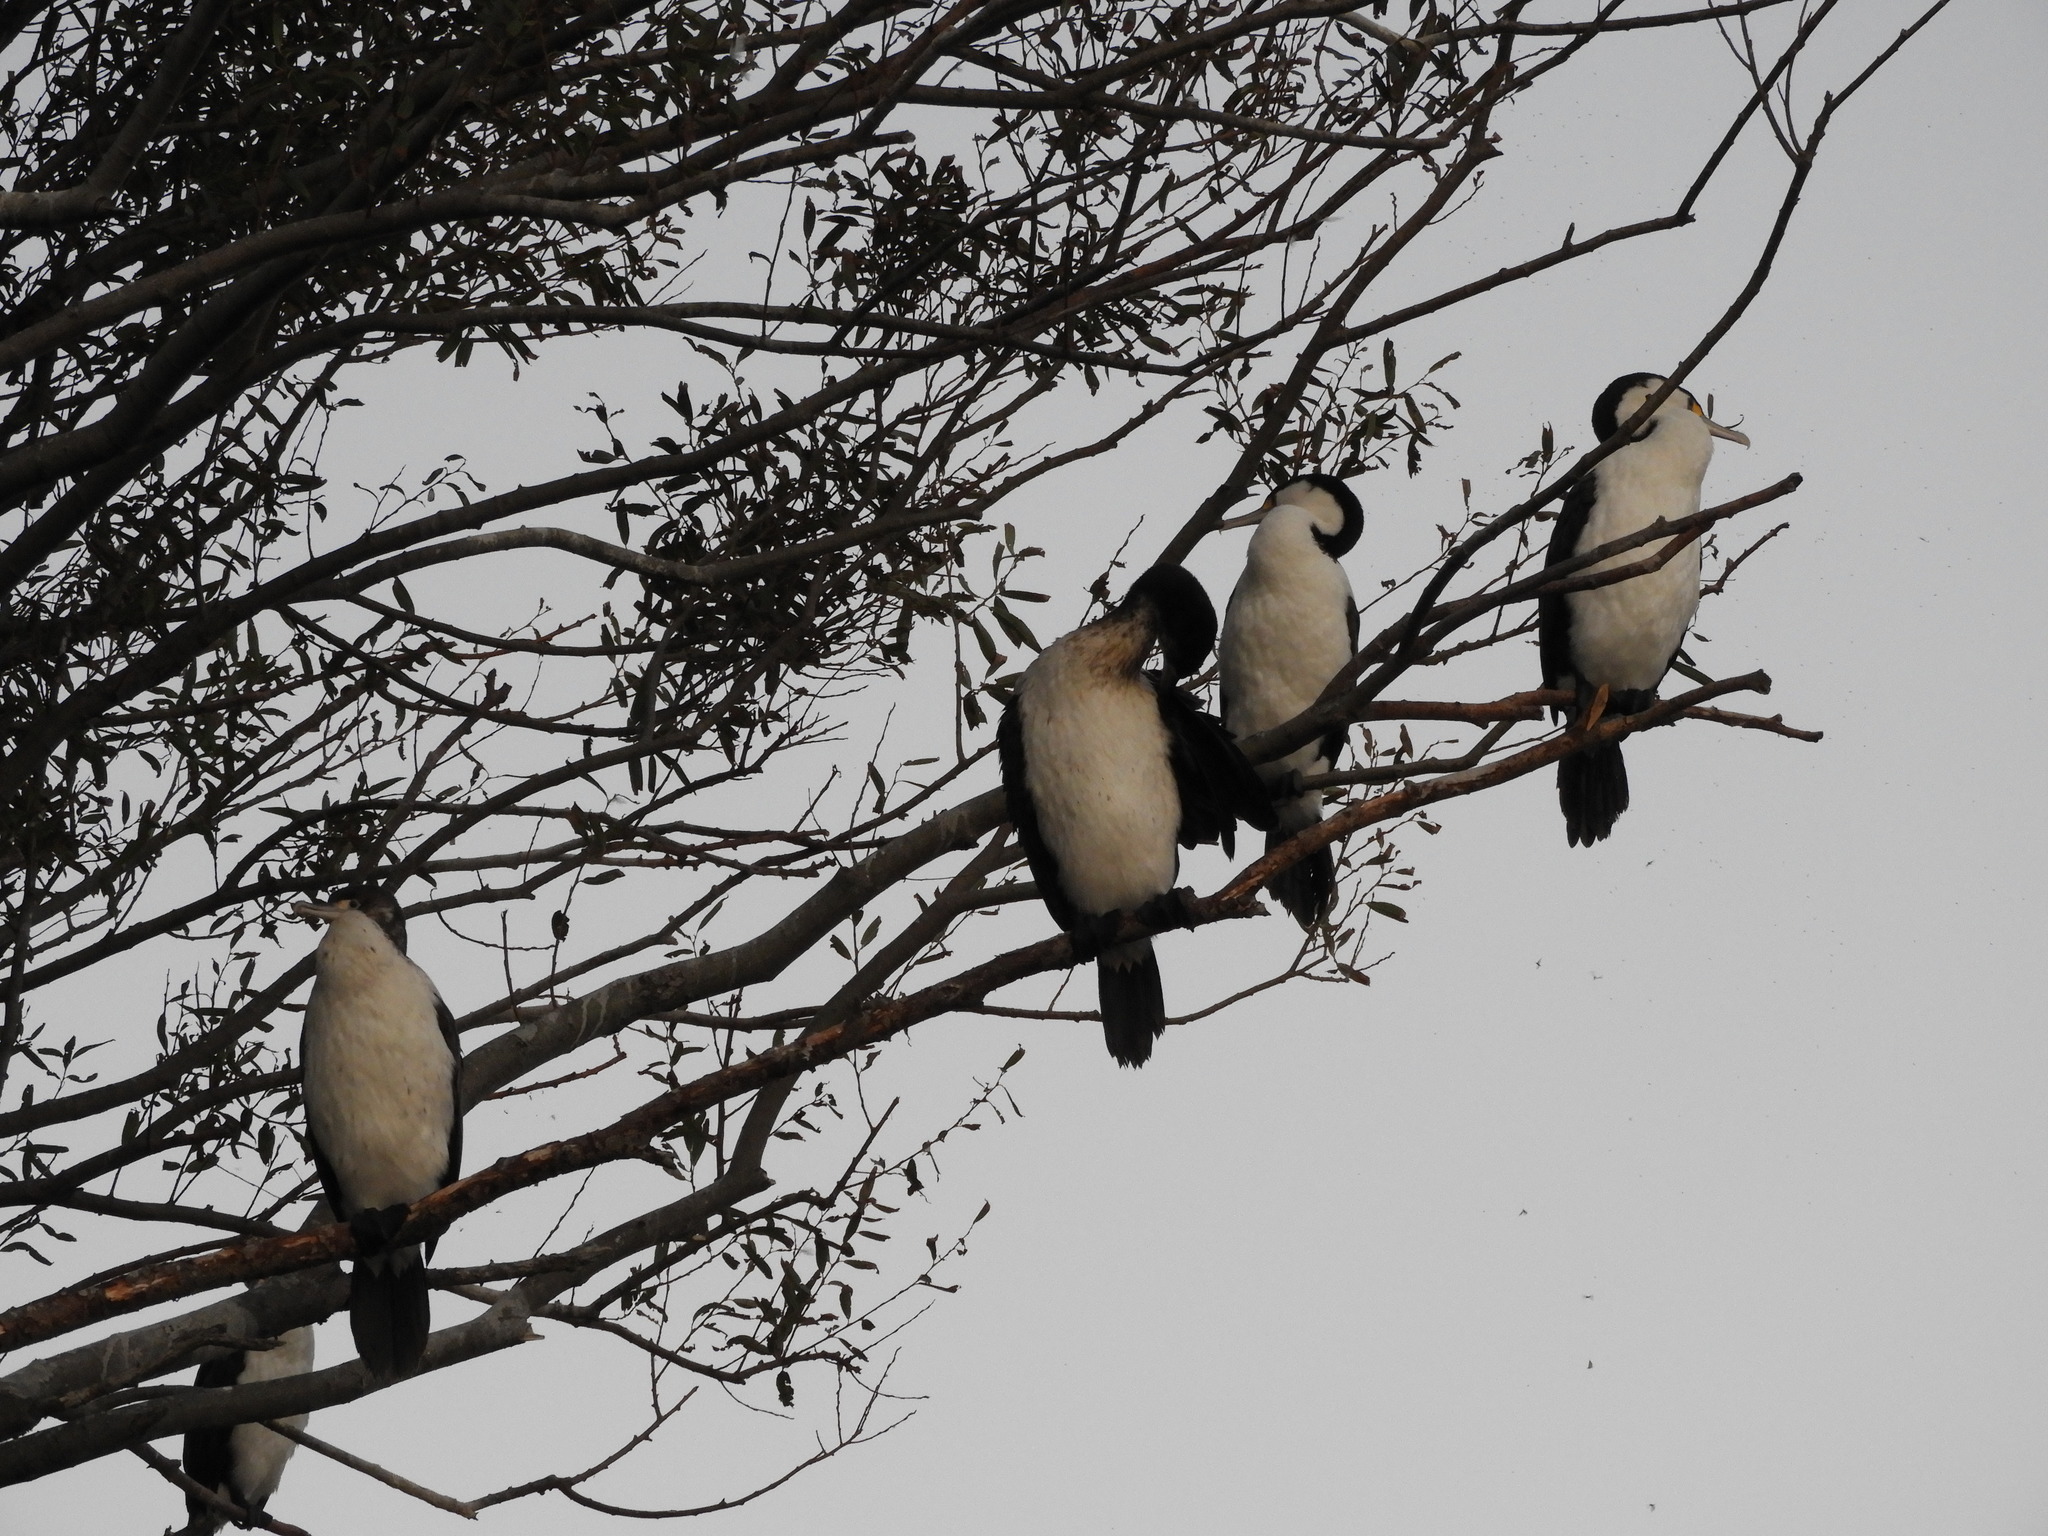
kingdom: Animalia
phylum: Chordata
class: Aves
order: Suliformes
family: Phalacrocoracidae
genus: Phalacrocorax
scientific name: Phalacrocorax varius
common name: Pied cormorant
